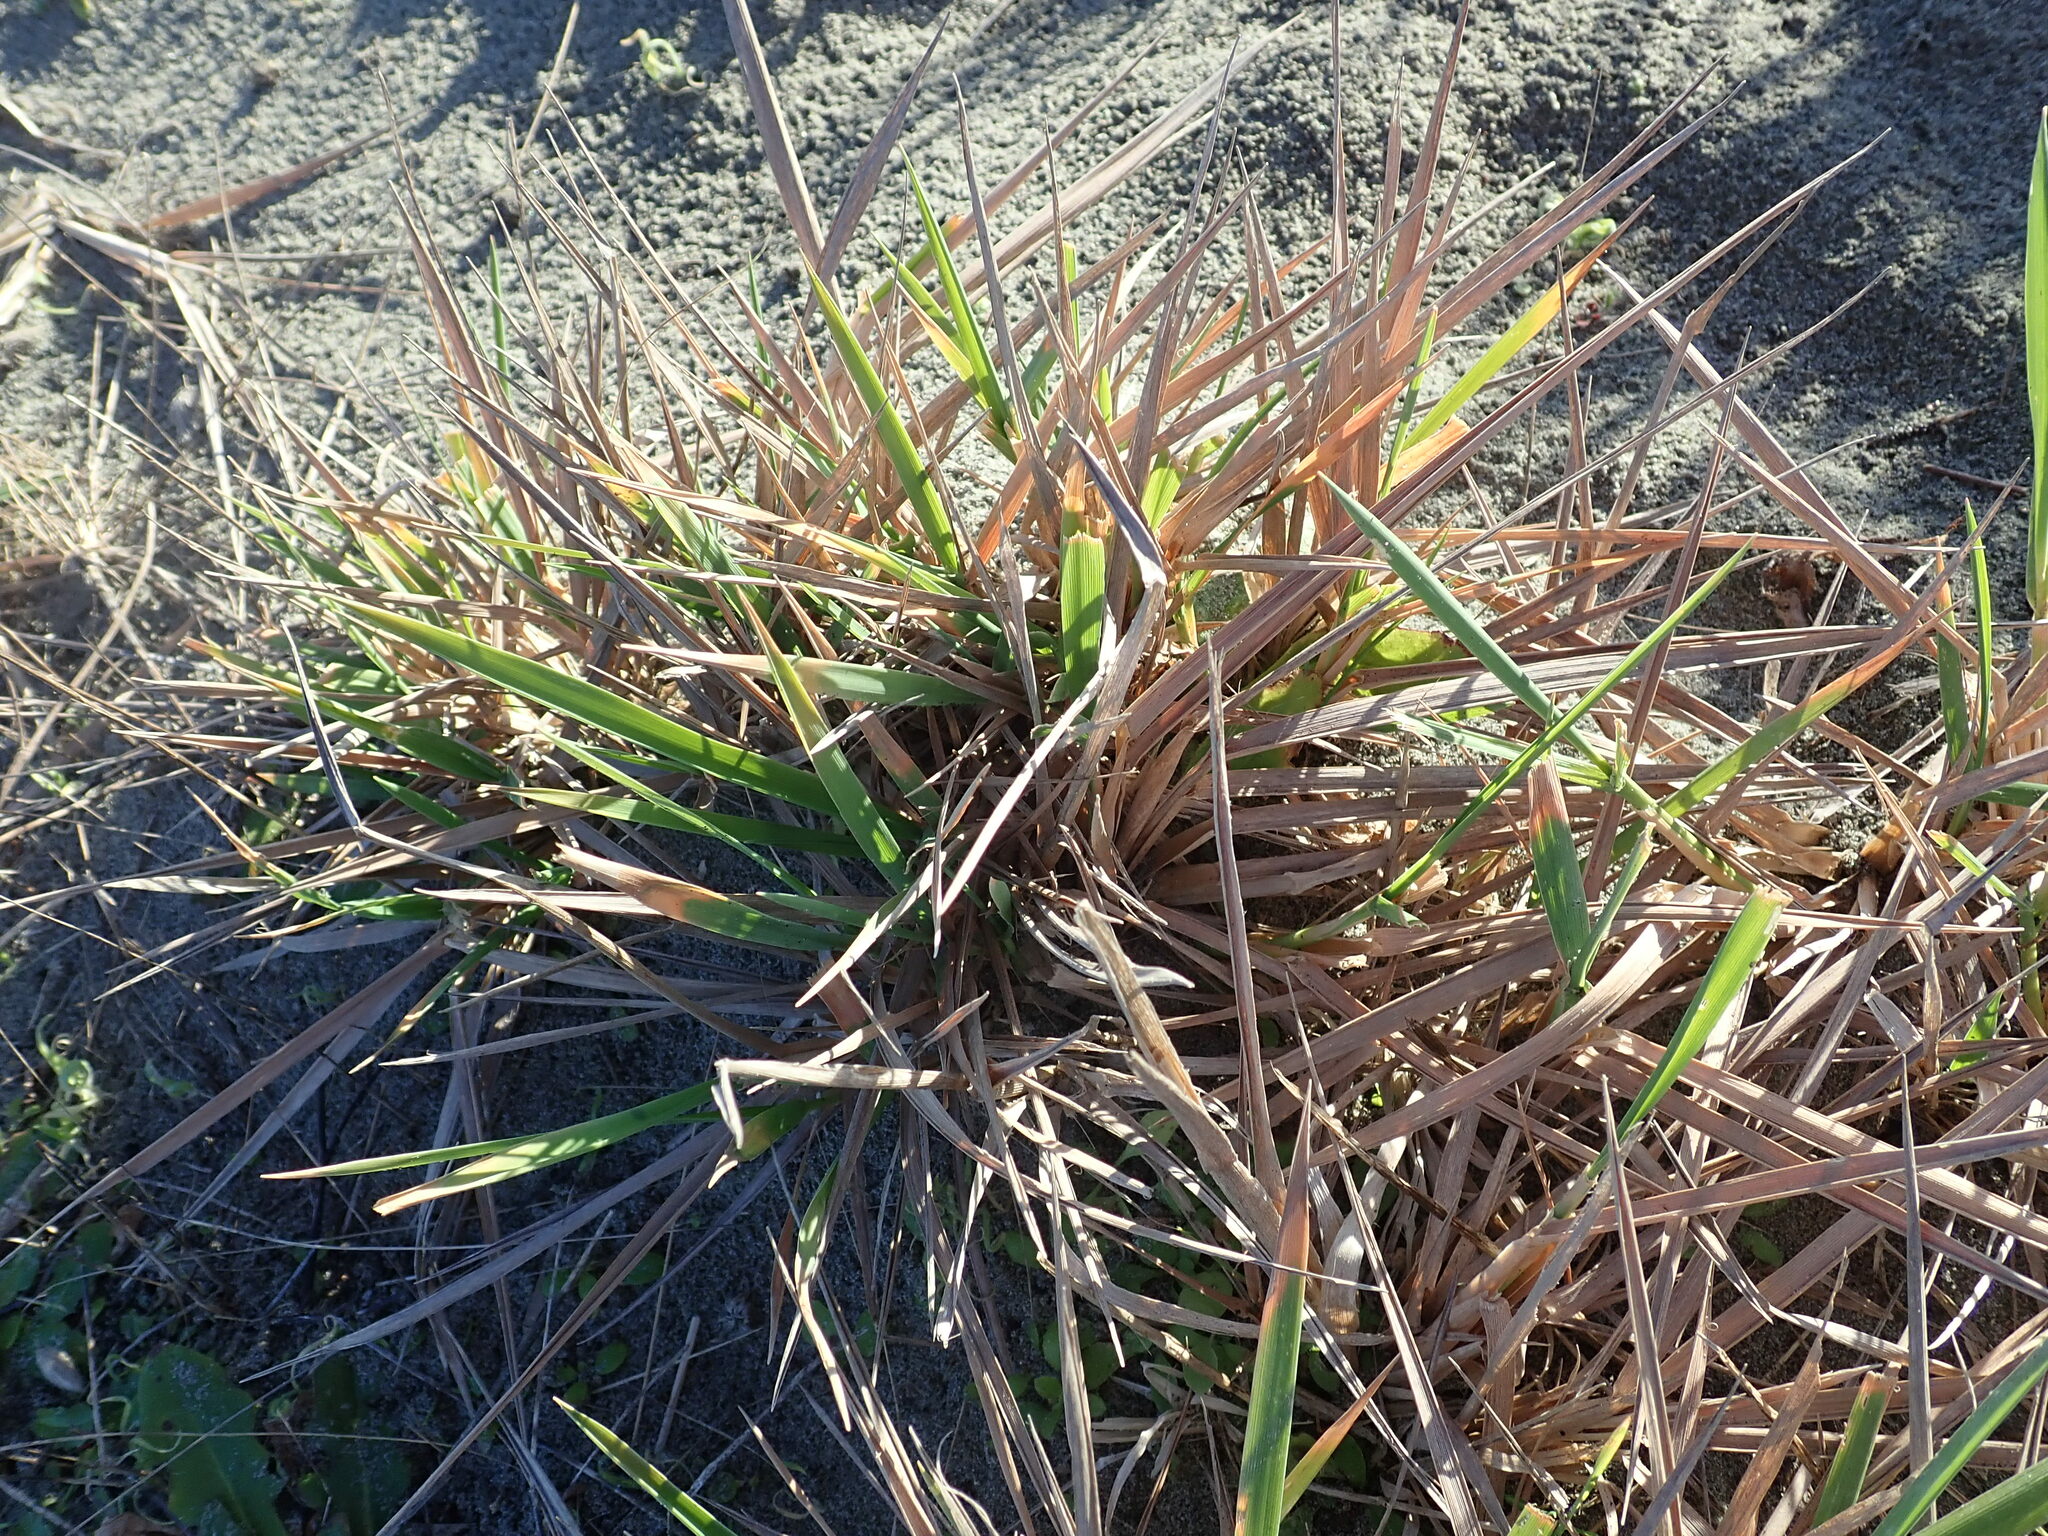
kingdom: Plantae
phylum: Tracheophyta
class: Liliopsida
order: Poales
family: Poaceae
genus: Lachnagrostis
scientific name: Lachnagrostis billardierei
